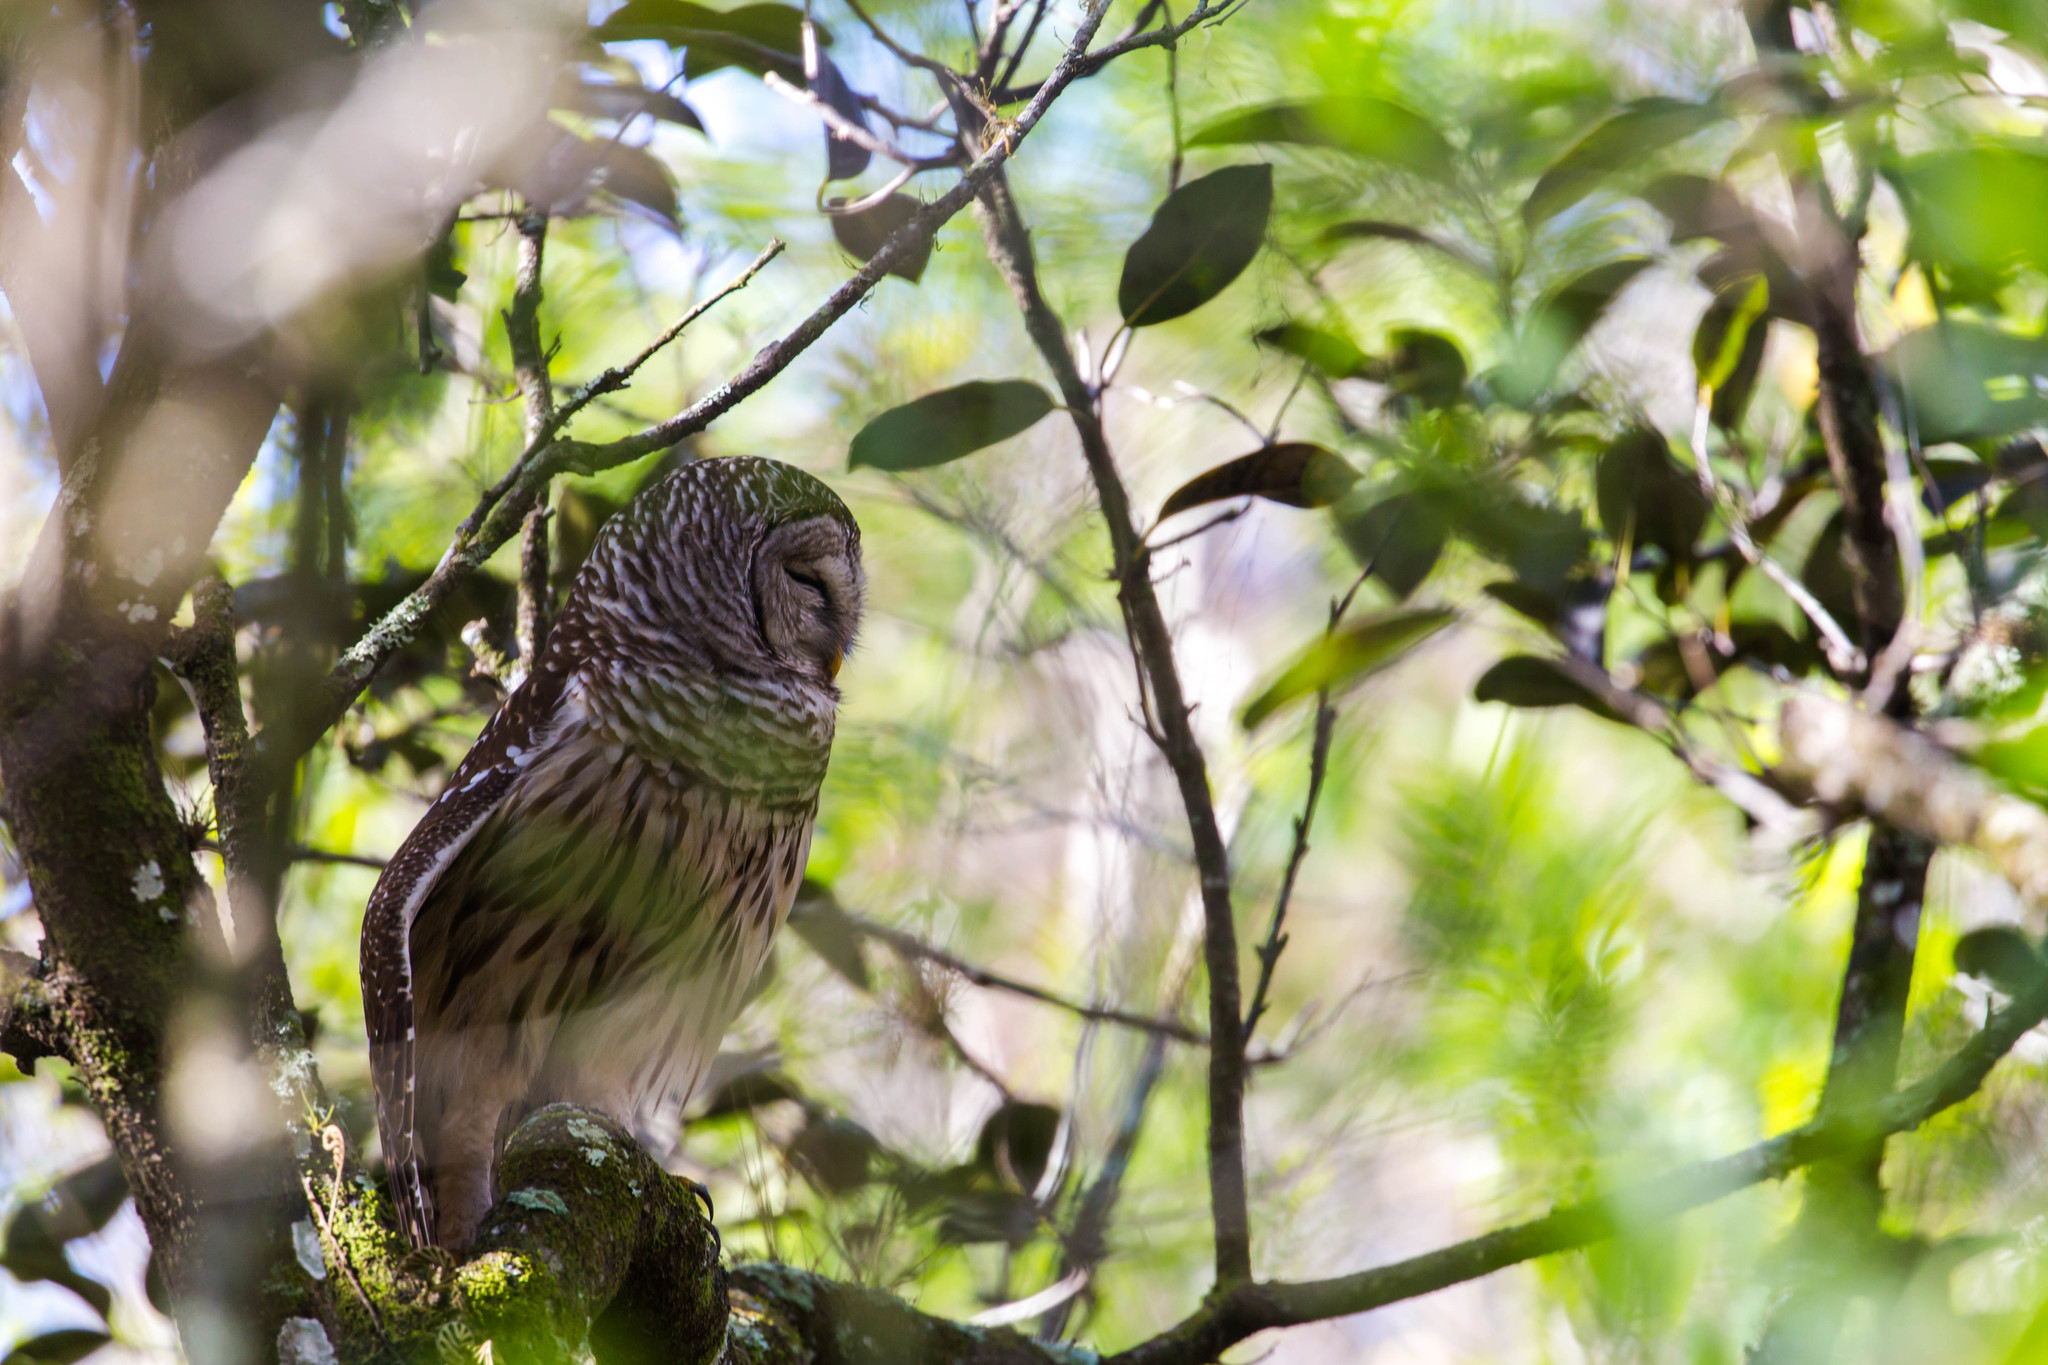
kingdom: Animalia
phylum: Chordata
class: Aves
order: Strigiformes
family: Strigidae
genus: Strix
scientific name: Strix varia
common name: Barred owl
